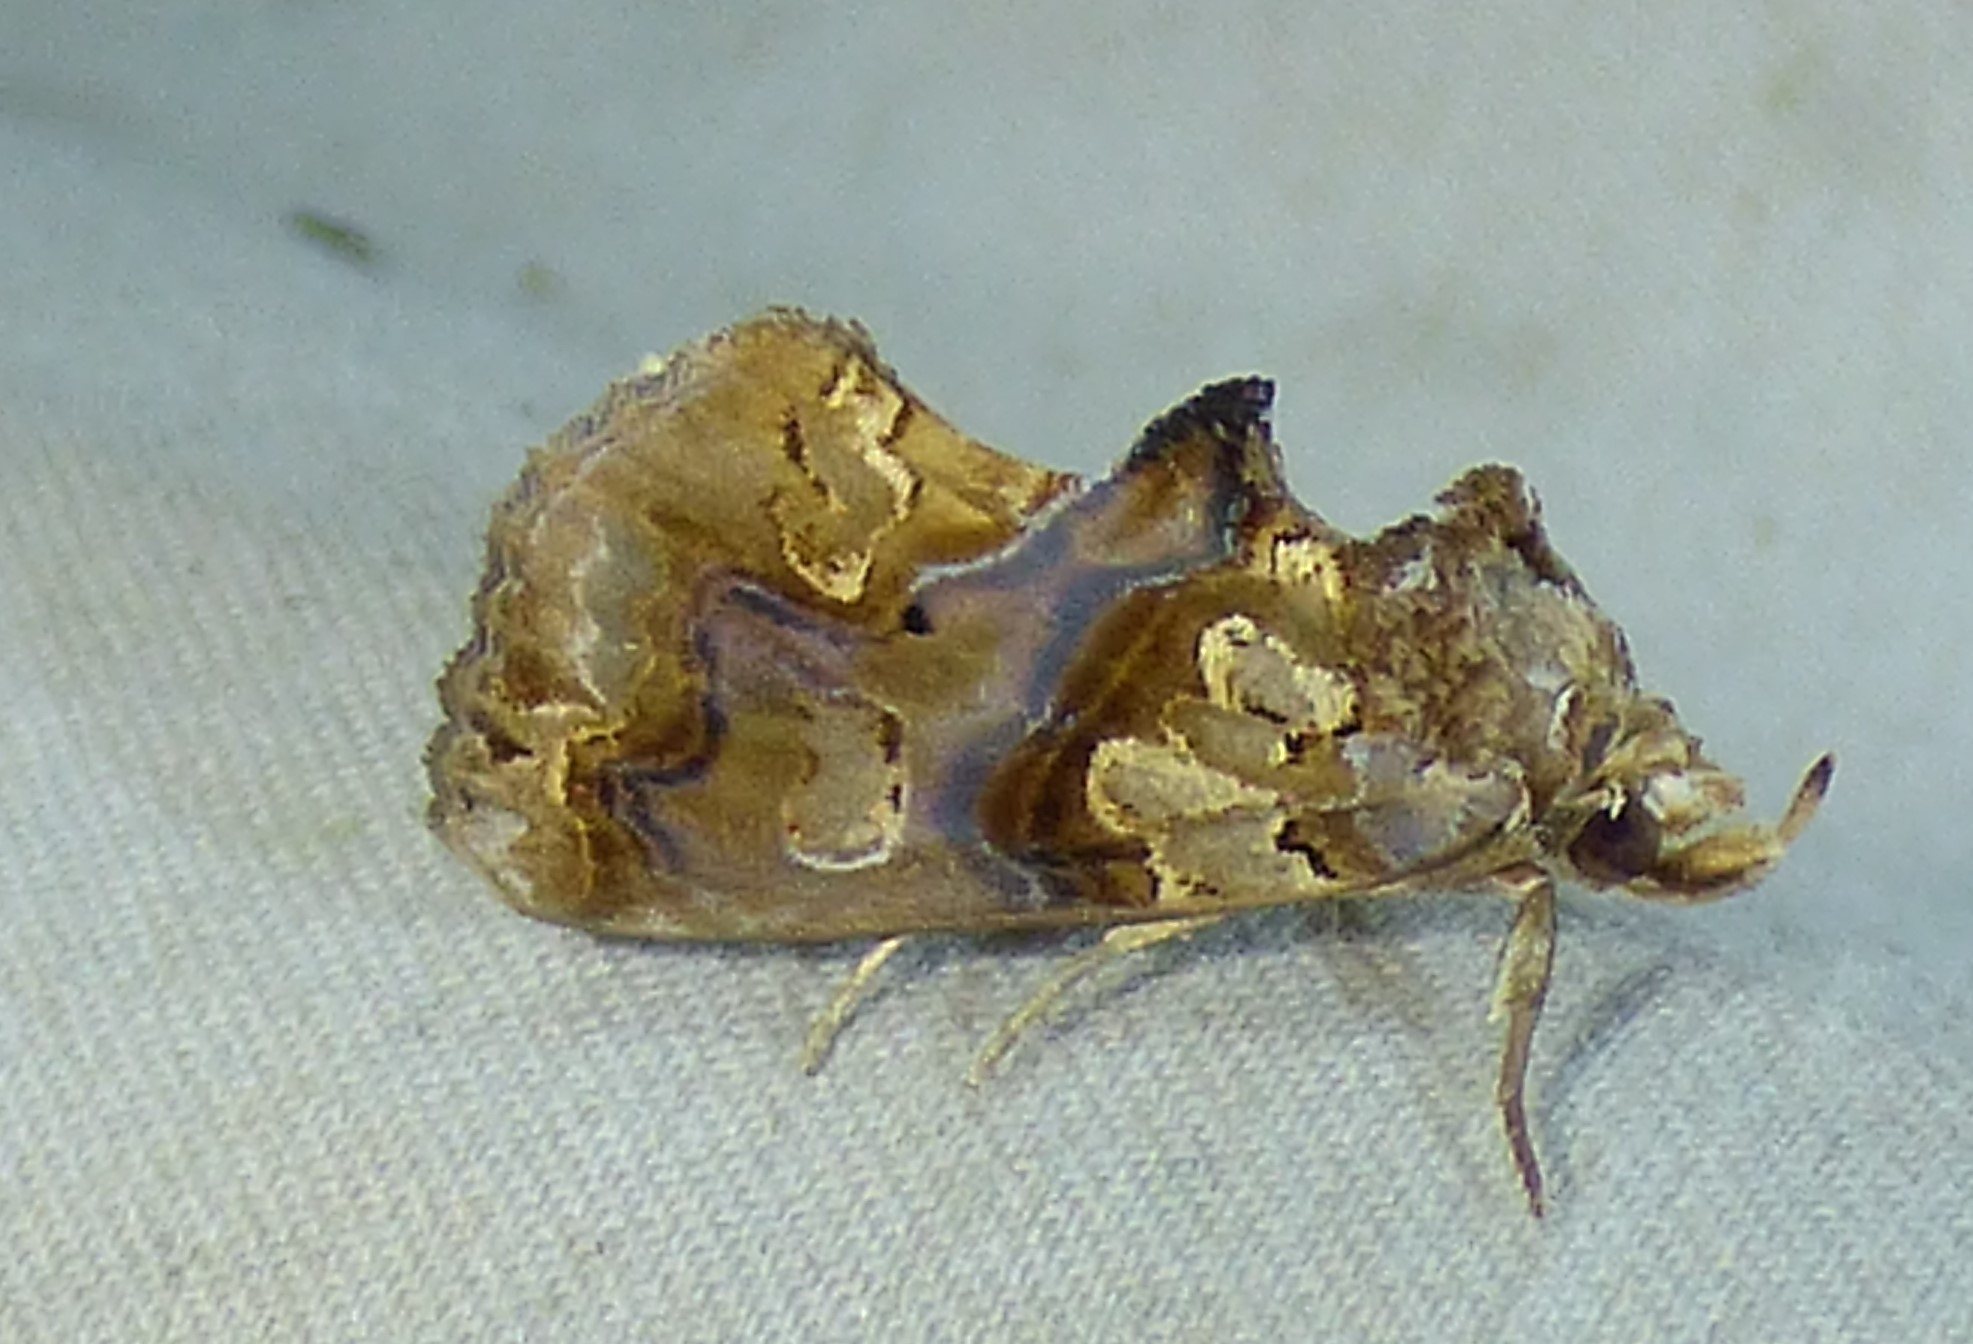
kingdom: Animalia
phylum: Arthropoda
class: Insecta
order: Lepidoptera
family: Erebidae
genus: Plusiodonta
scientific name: Plusiodonta compressipalpis
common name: Moonseed moth
